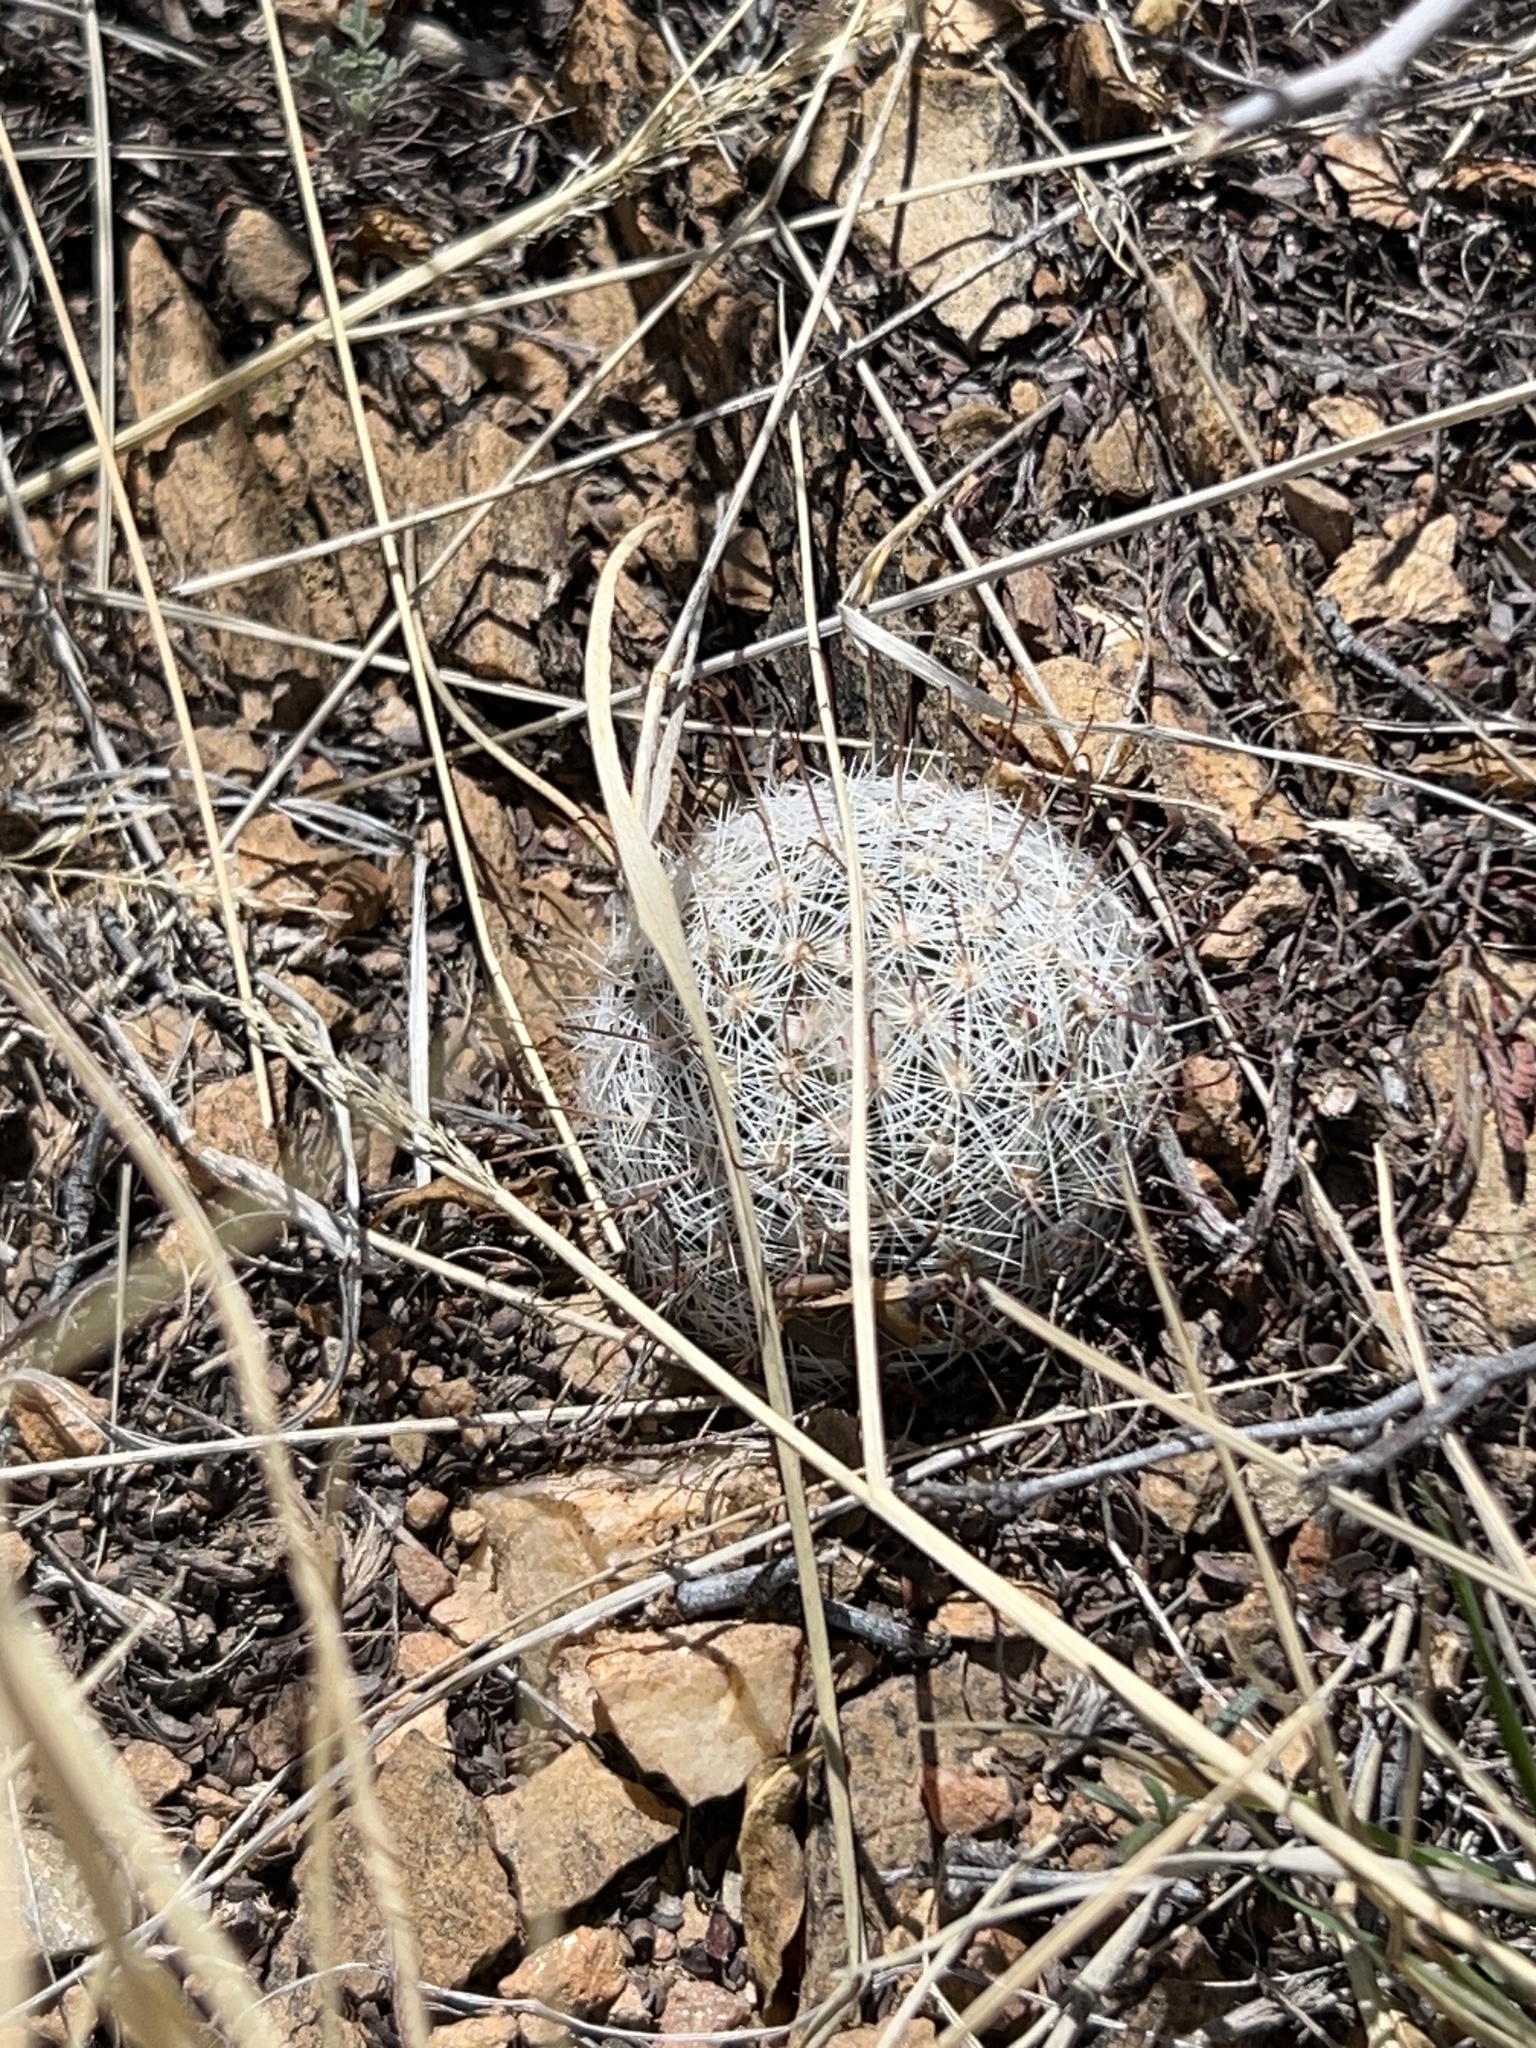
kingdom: Plantae
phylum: Tracheophyta
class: Magnoliopsida
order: Caryophyllales
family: Cactaceae
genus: Cochemiea
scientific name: Cochemiea grahamii
